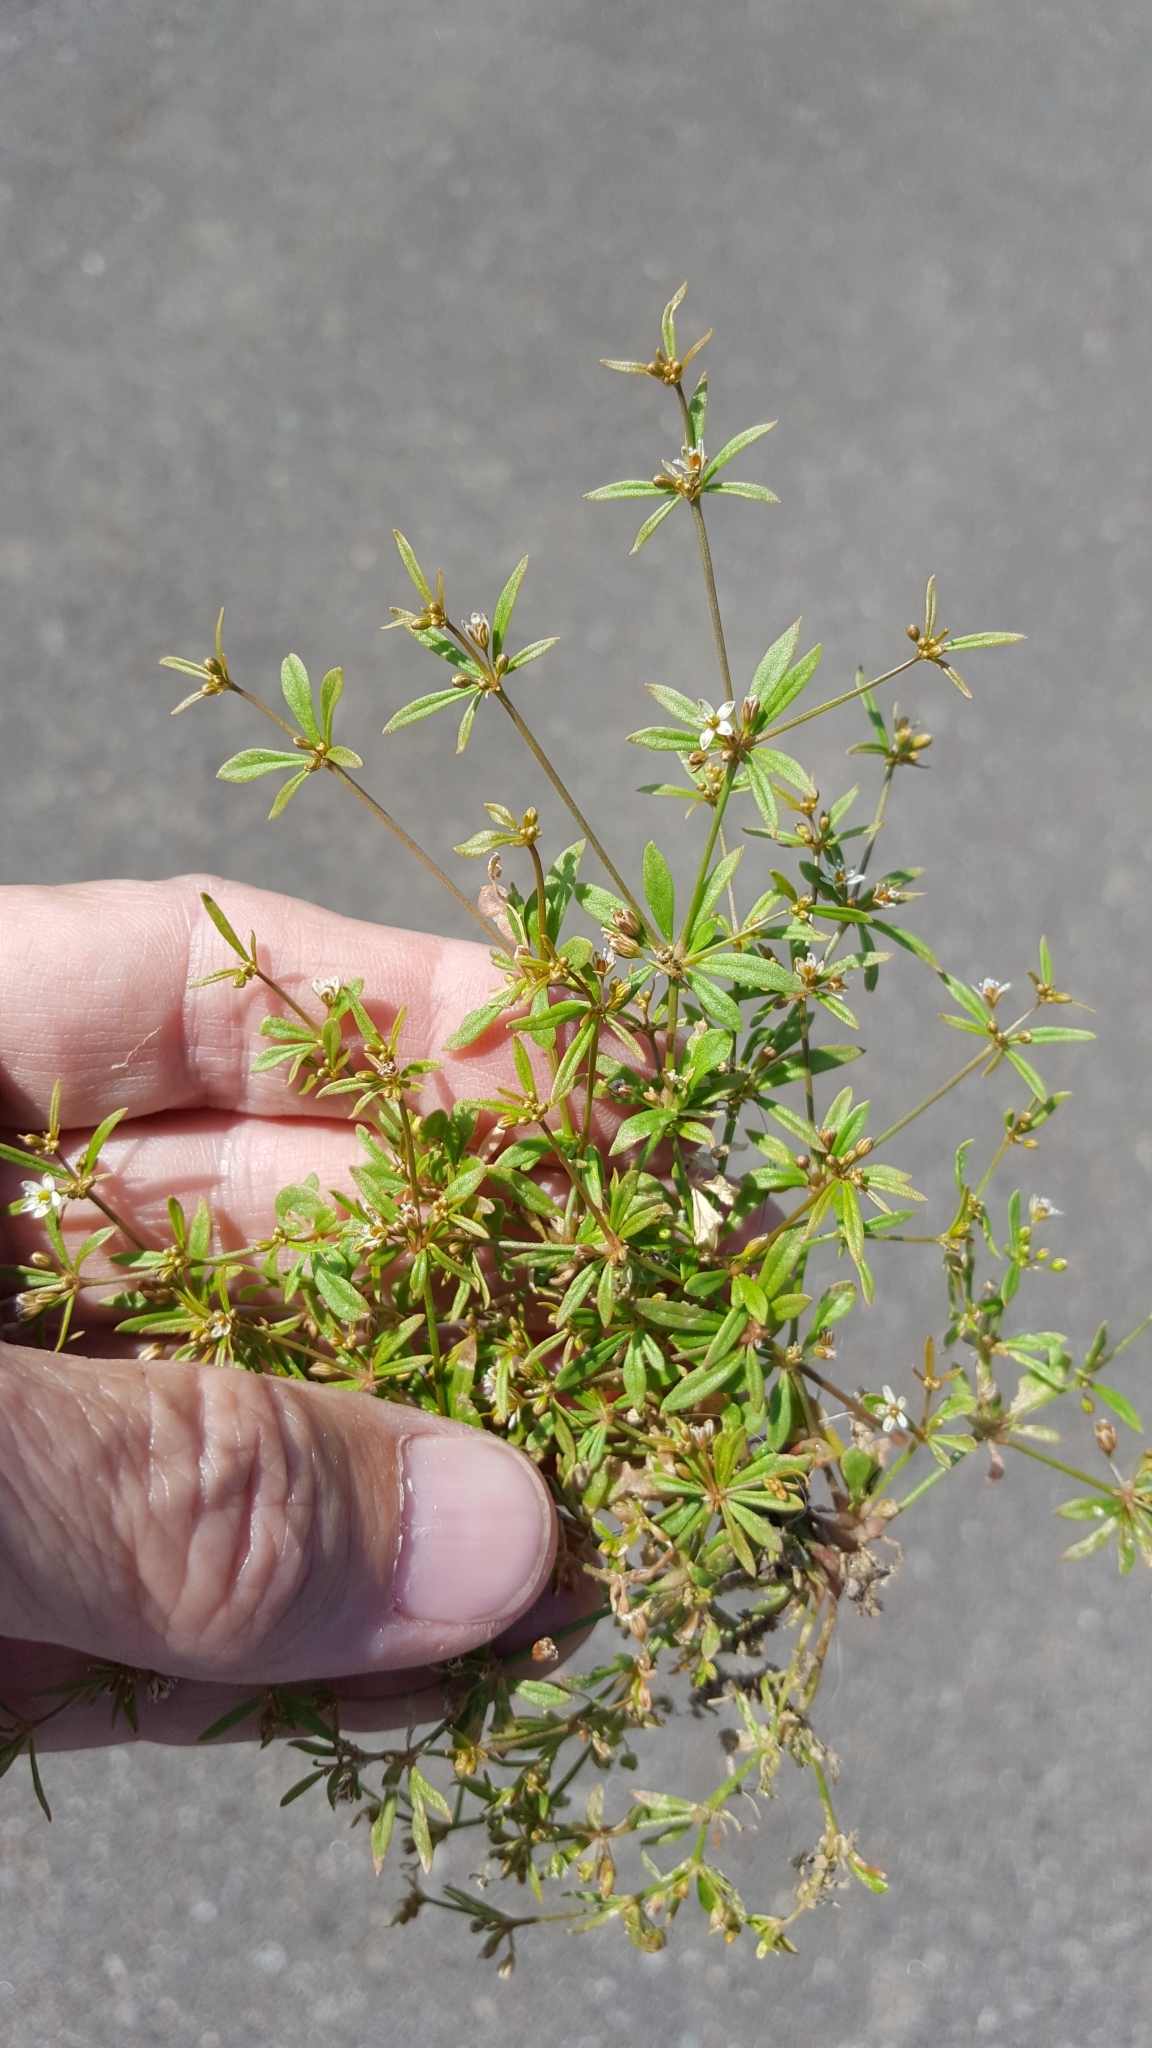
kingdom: Plantae
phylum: Tracheophyta
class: Magnoliopsida
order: Caryophyllales
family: Molluginaceae
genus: Mollugo
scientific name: Mollugo verticillata
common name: Green carpetweed
